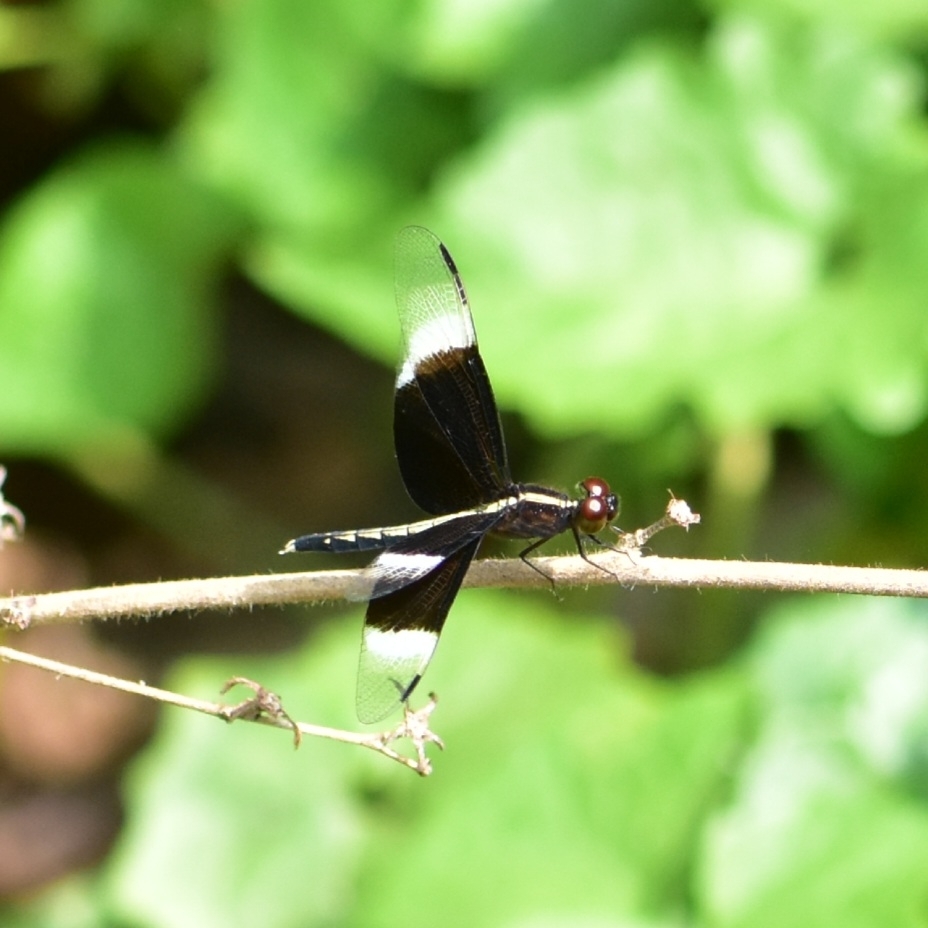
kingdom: Animalia
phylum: Arthropoda
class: Insecta
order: Odonata
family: Libellulidae
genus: Neurothemis
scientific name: Neurothemis tullia
